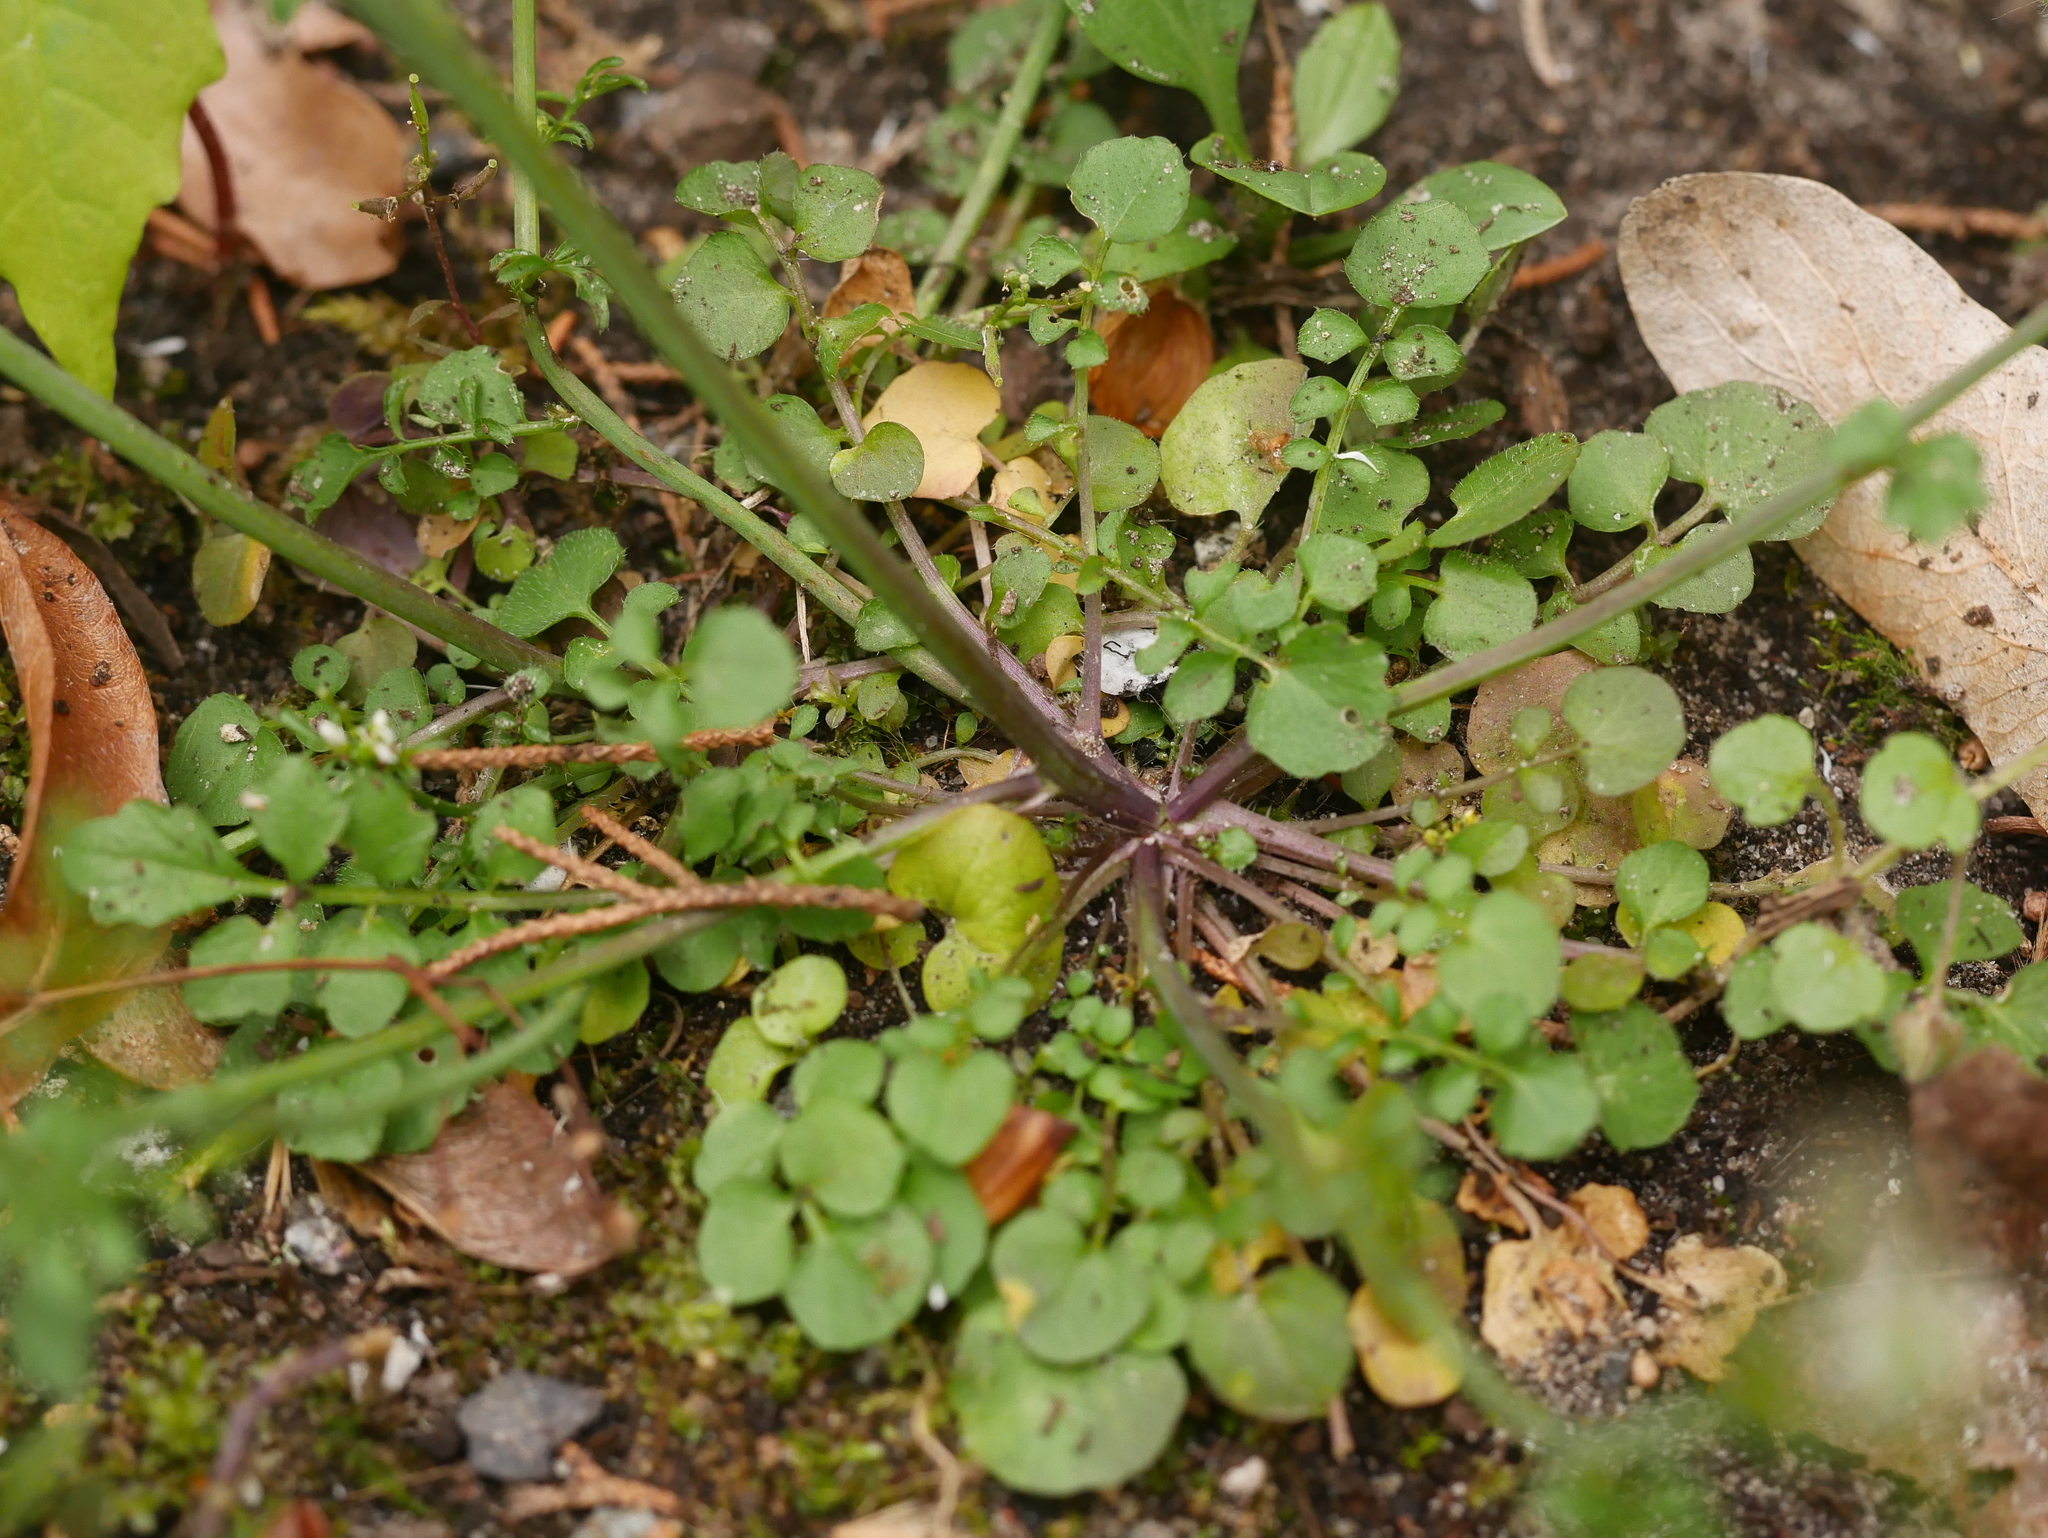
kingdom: Plantae
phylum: Tracheophyta
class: Magnoliopsida
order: Brassicales
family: Brassicaceae
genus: Cardamine
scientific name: Cardamine hirsuta
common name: Hairy bittercress
